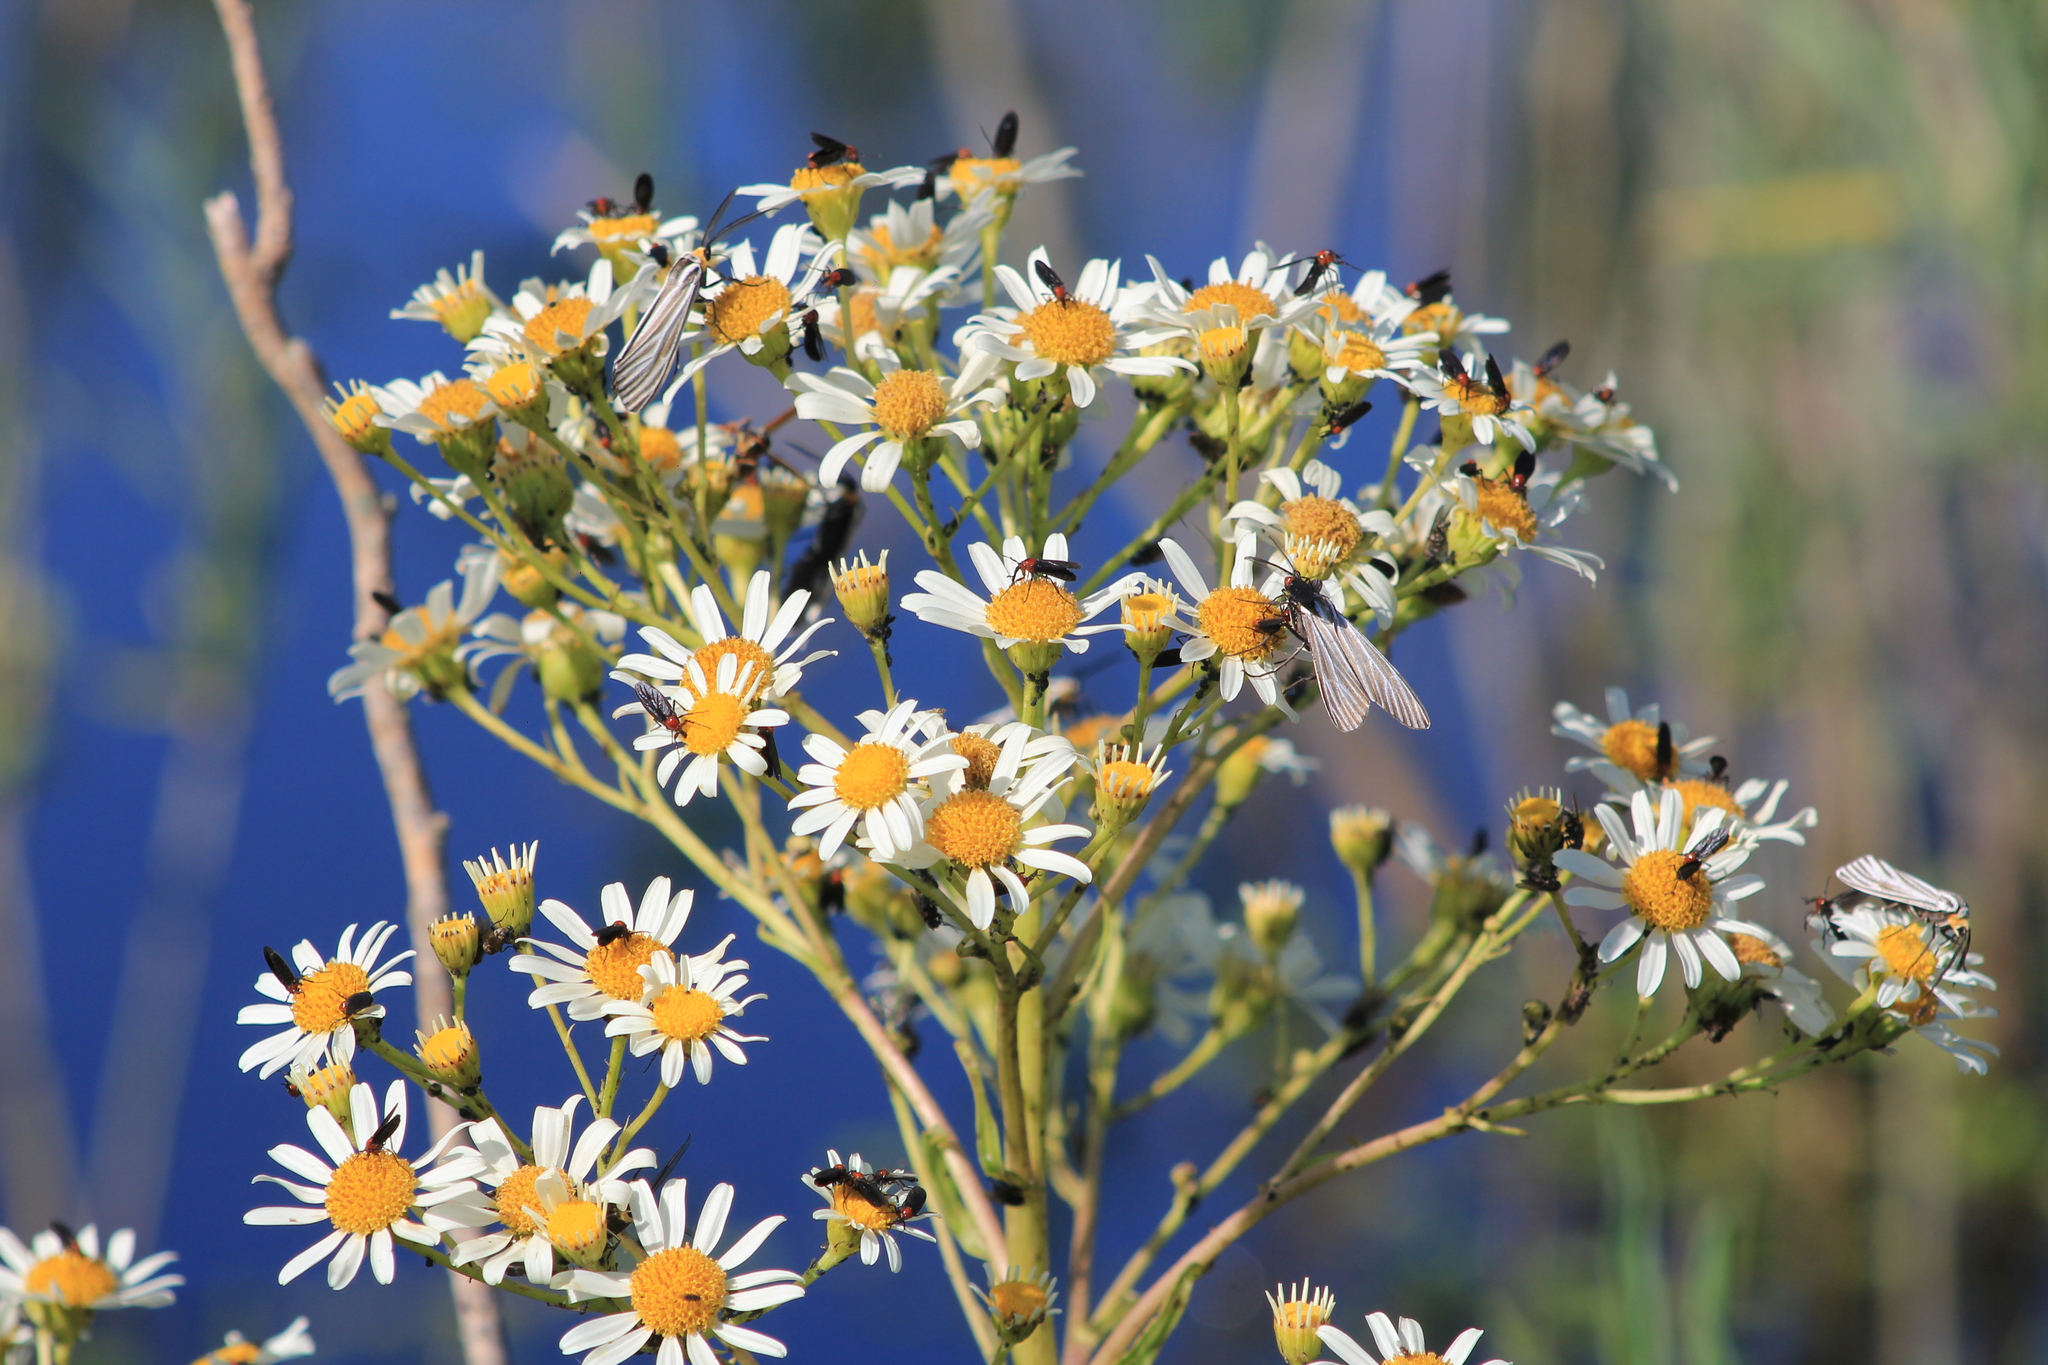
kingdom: Plantae
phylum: Tracheophyta
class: Magnoliopsida
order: Asterales
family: Asteraceae
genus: Senecio
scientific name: Senecio bonariensis
